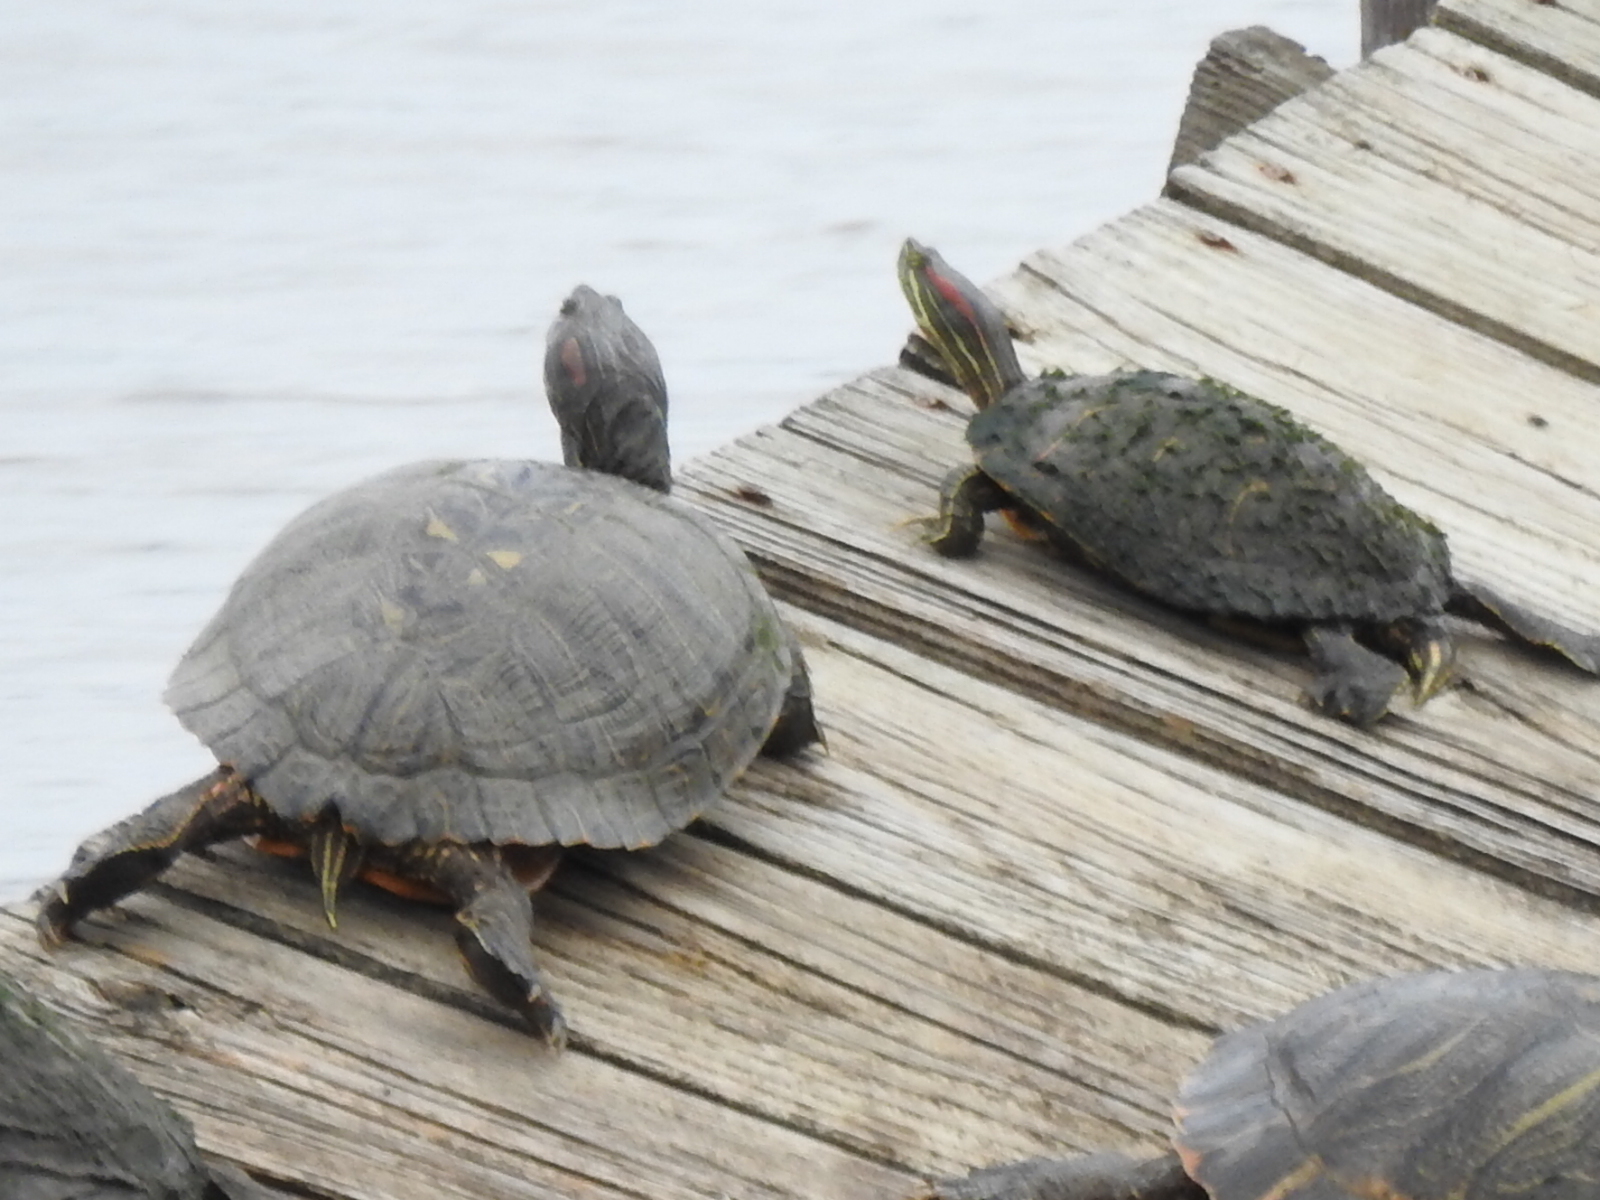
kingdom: Animalia
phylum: Chordata
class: Testudines
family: Emydidae
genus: Trachemys
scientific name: Trachemys scripta
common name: Slider
